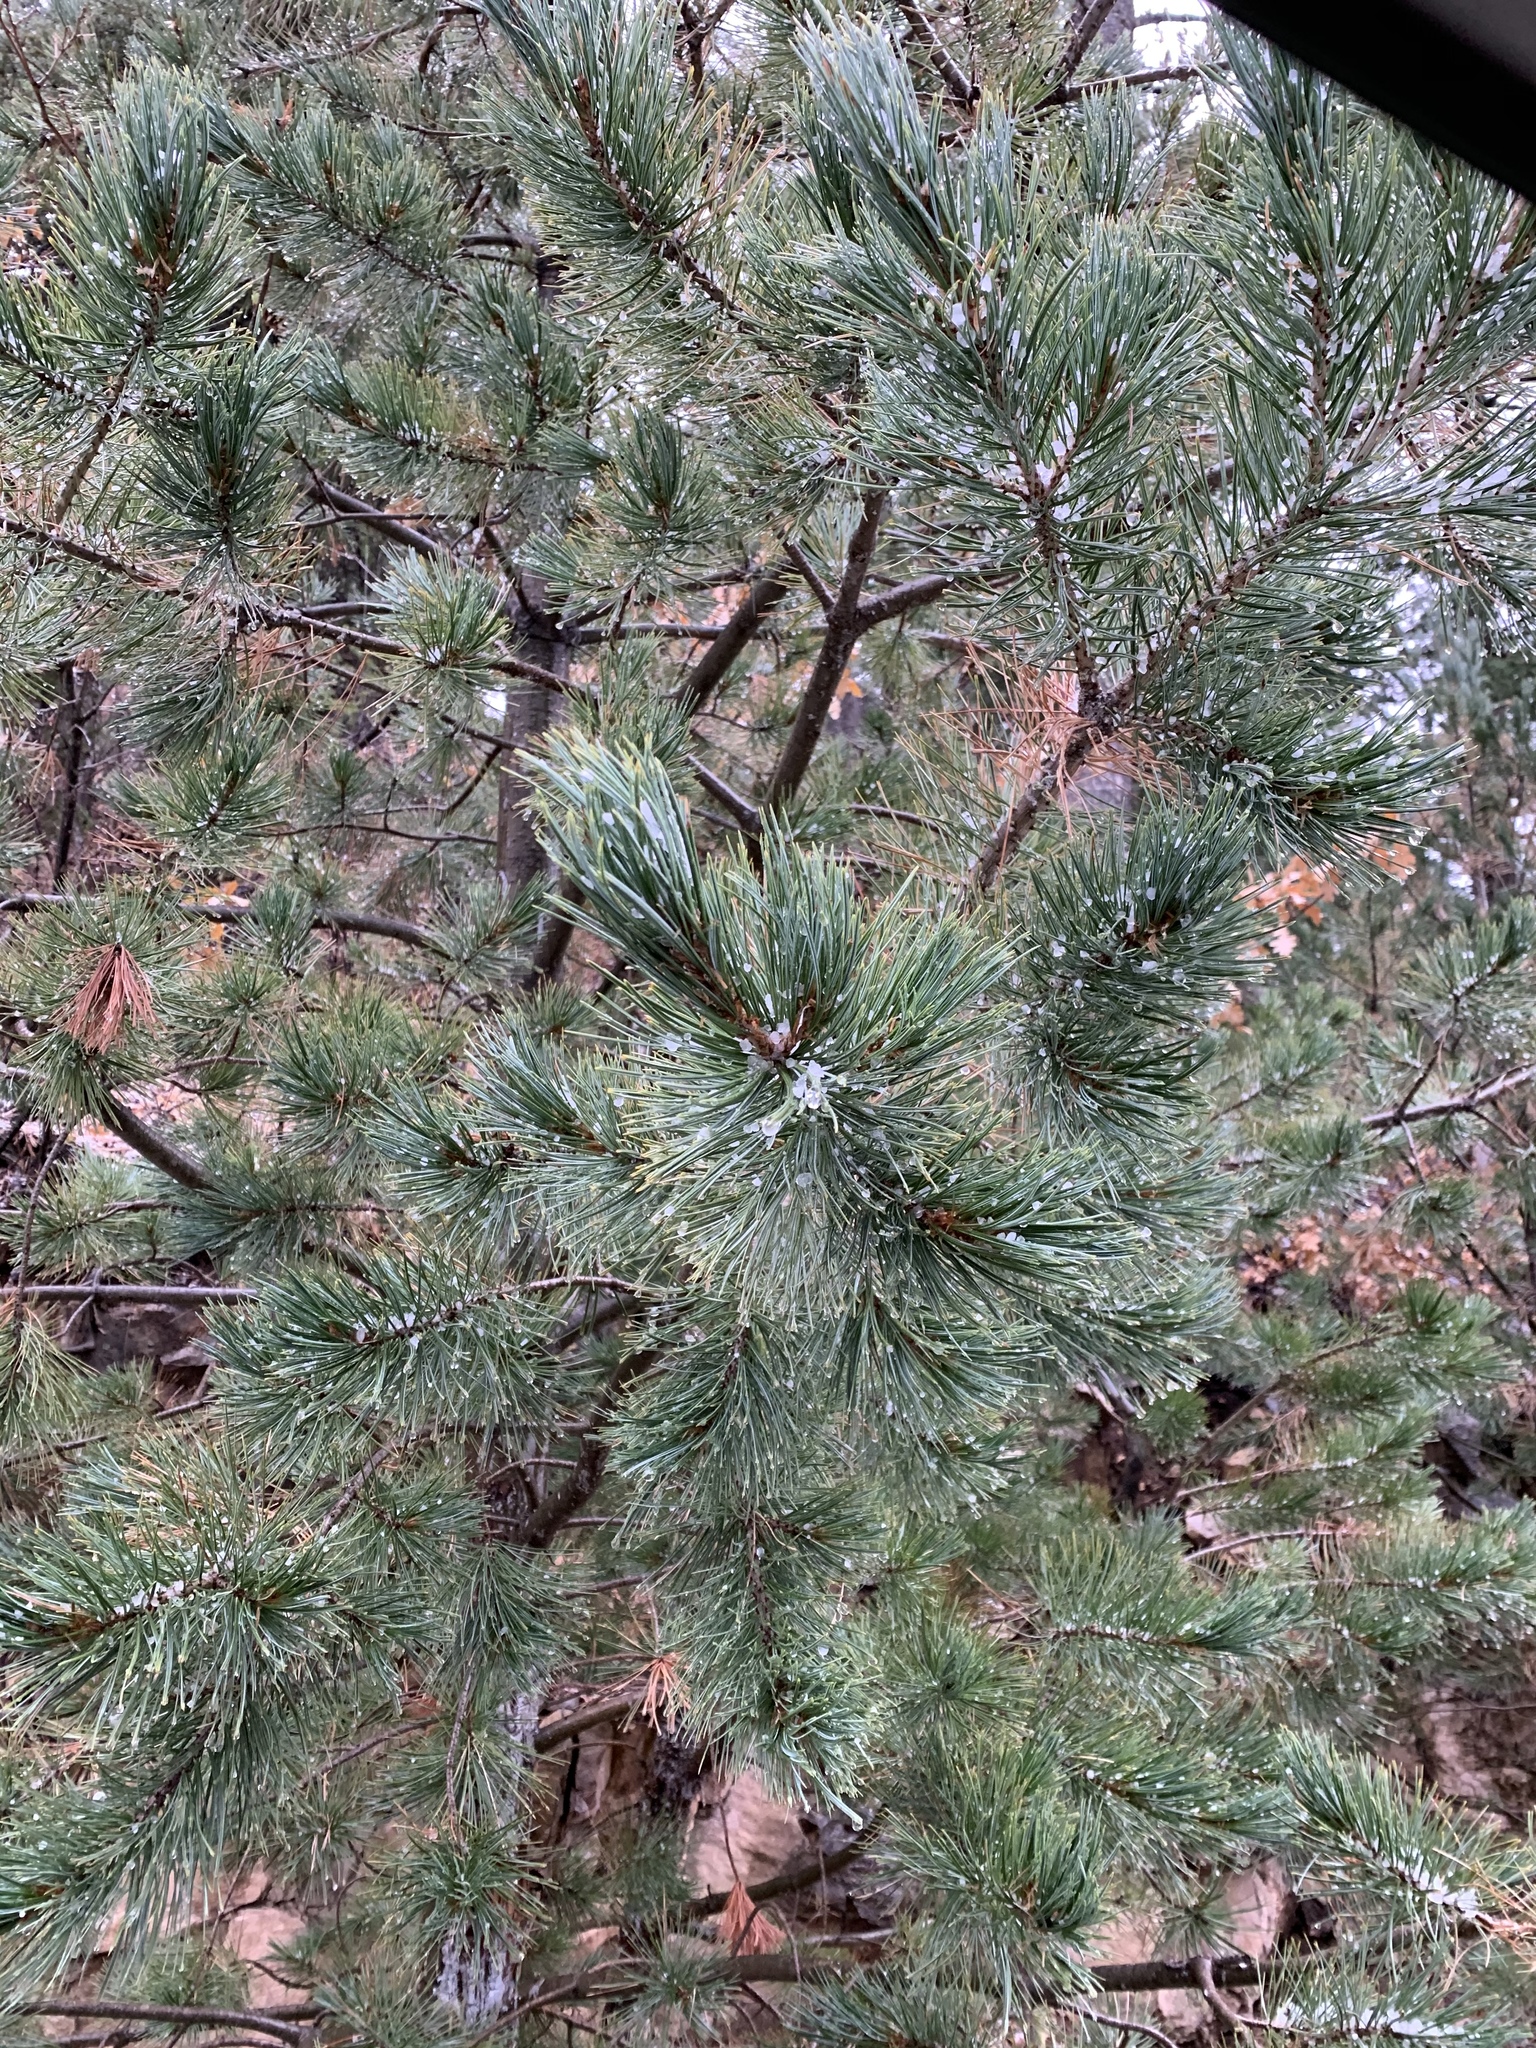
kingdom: Plantae
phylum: Tracheophyta
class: Pinopsida
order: Pinales
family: Pinaceae
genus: Pinus
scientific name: Pinus strobiformis
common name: Southwestern white pine
